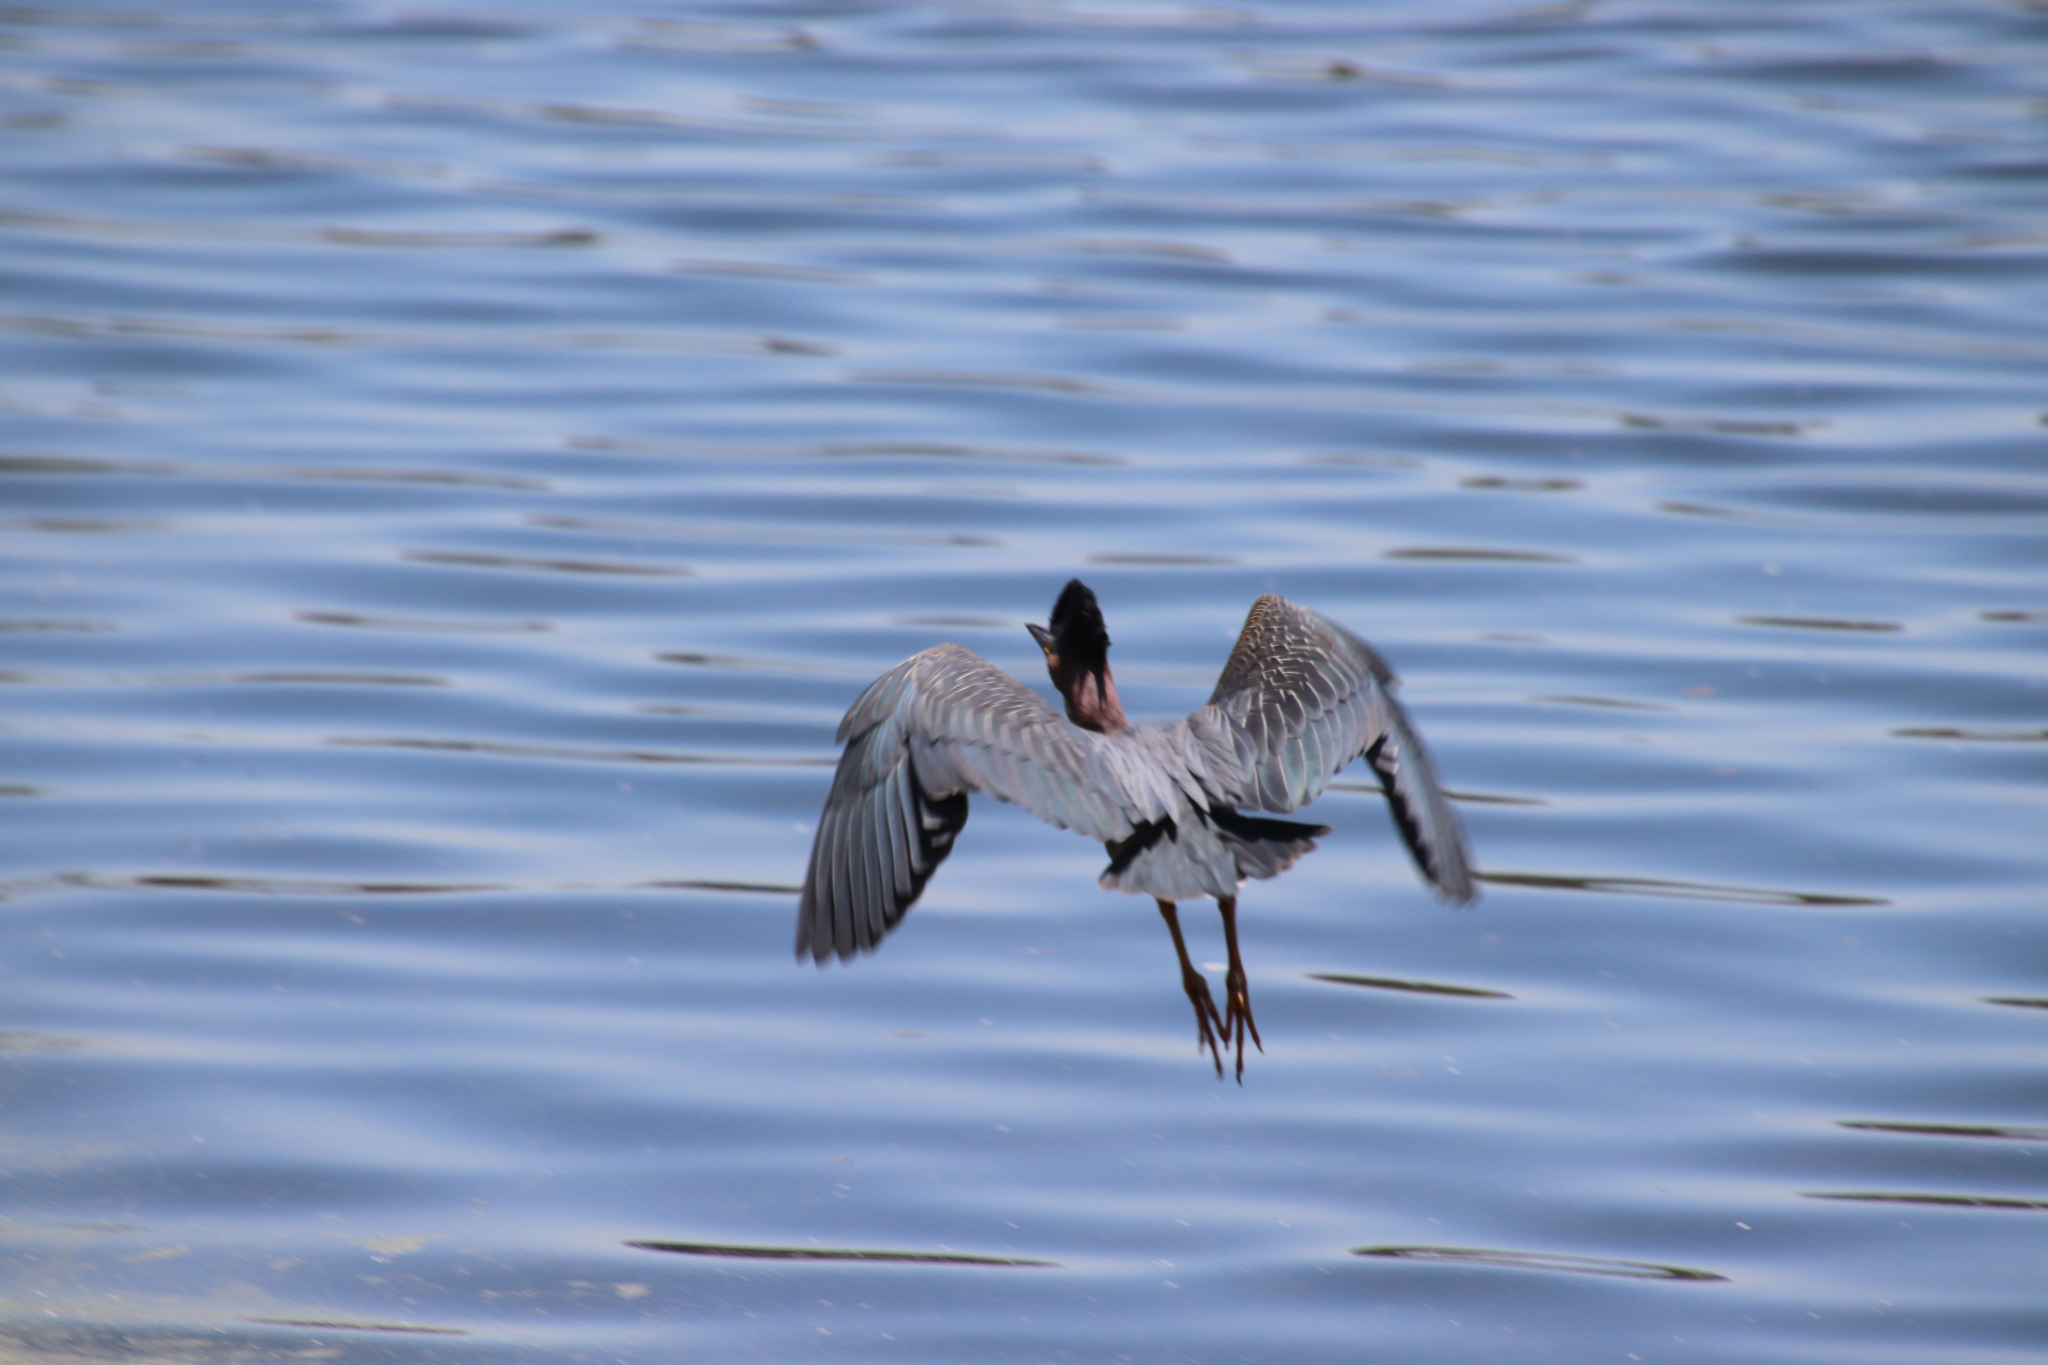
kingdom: Animalia
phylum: Chordata
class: Aves
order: Pelecaniformes
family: Ardeidae
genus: Butorides
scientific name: Butorides virescens
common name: Green heron
